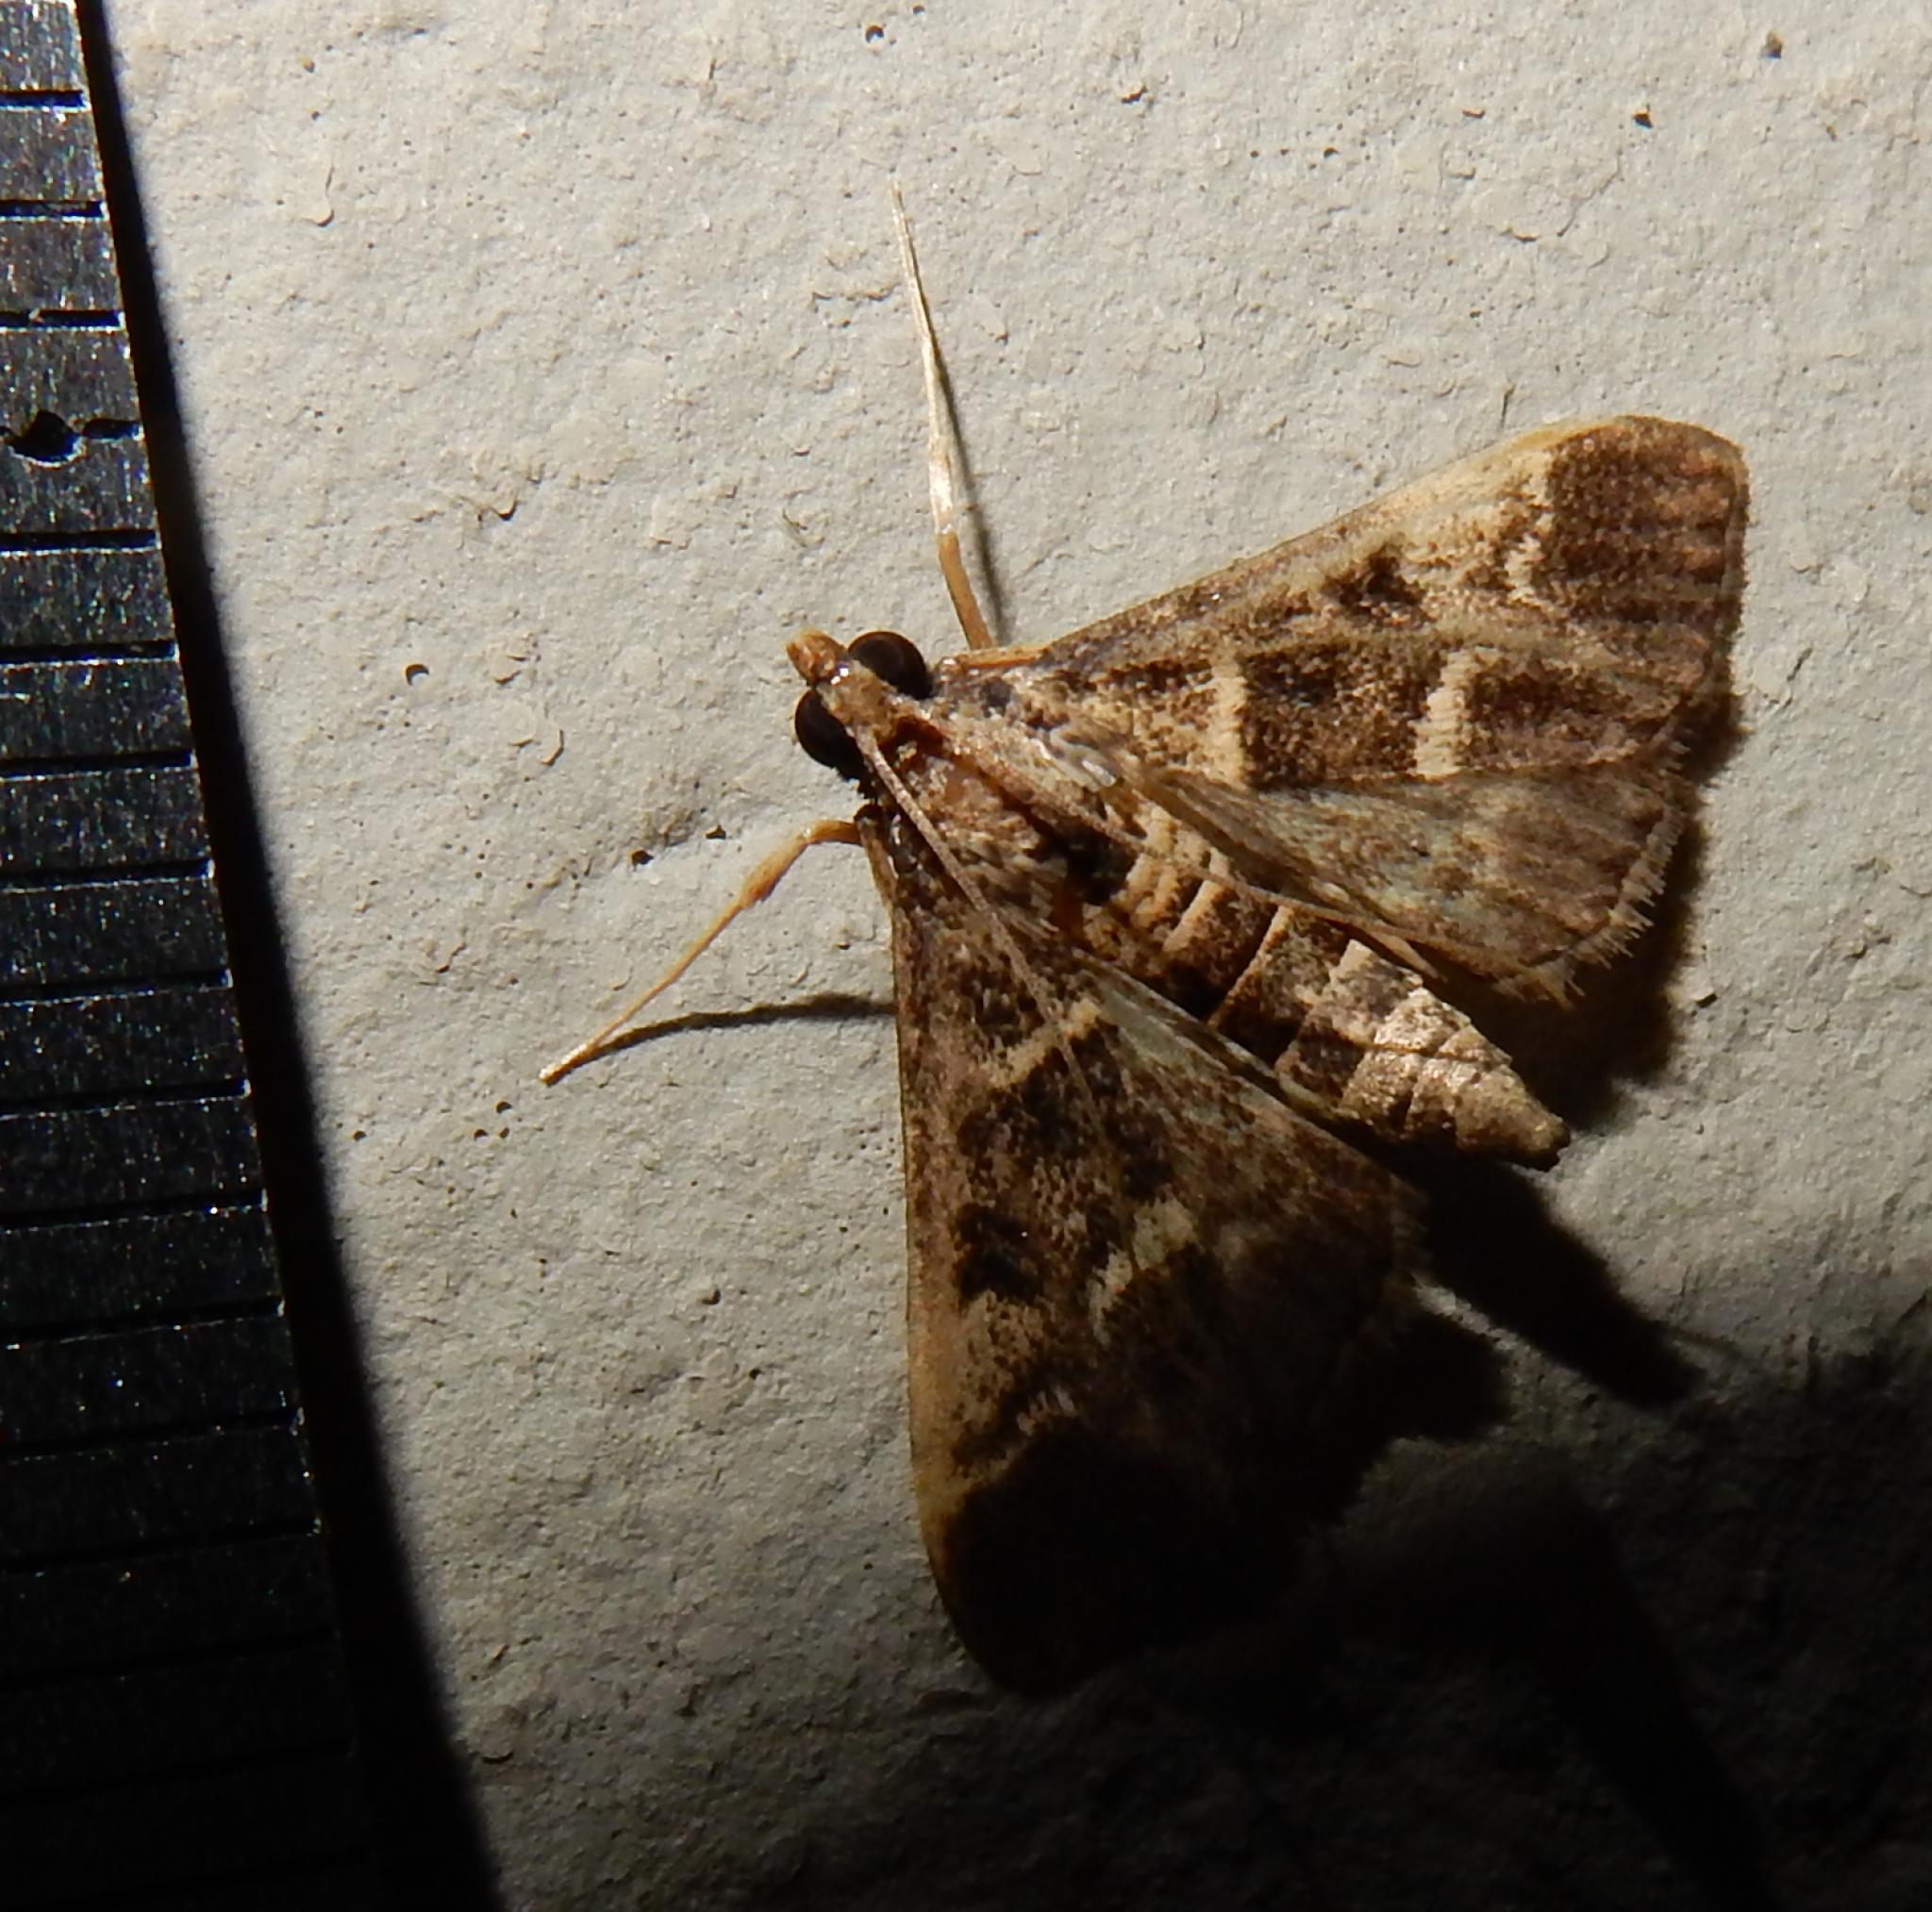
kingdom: Animalia
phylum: Arthropoda
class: Insecta
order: Lepidoptera
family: Crambidae
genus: Duponchelia
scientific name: Duponchelia fovealis
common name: Crambid moth
